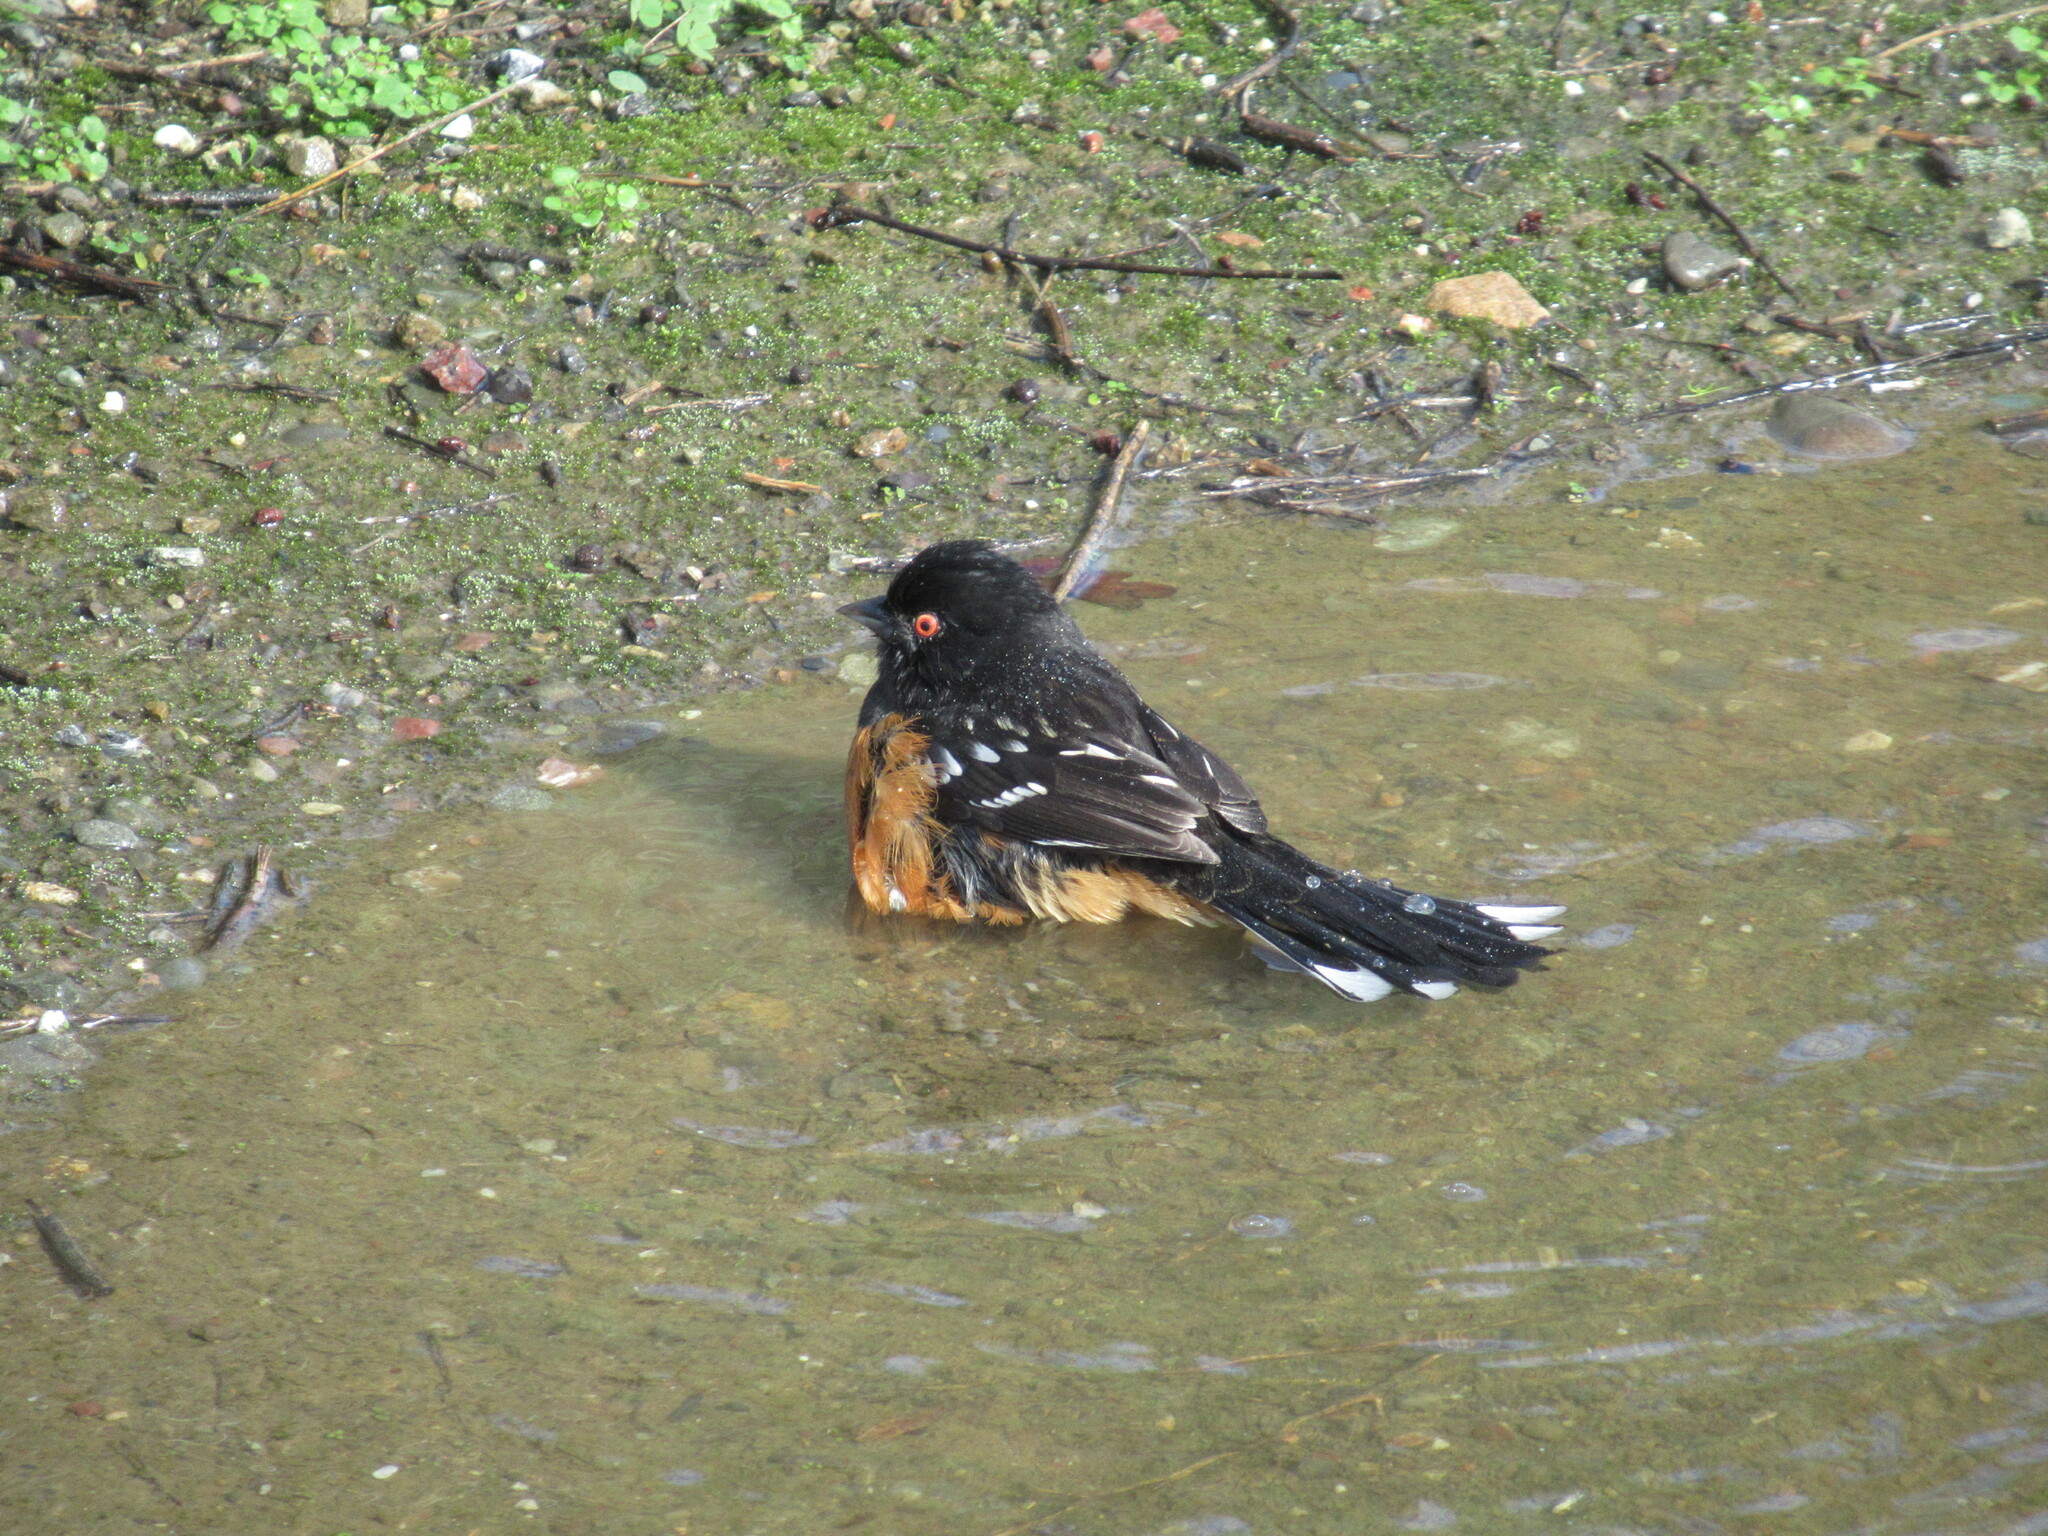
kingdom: Animalia
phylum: Chordata
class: Aves
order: Passeriformes
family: Passerellidae
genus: Pipilo
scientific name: Pipilo maculatus
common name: Spotted towhee
